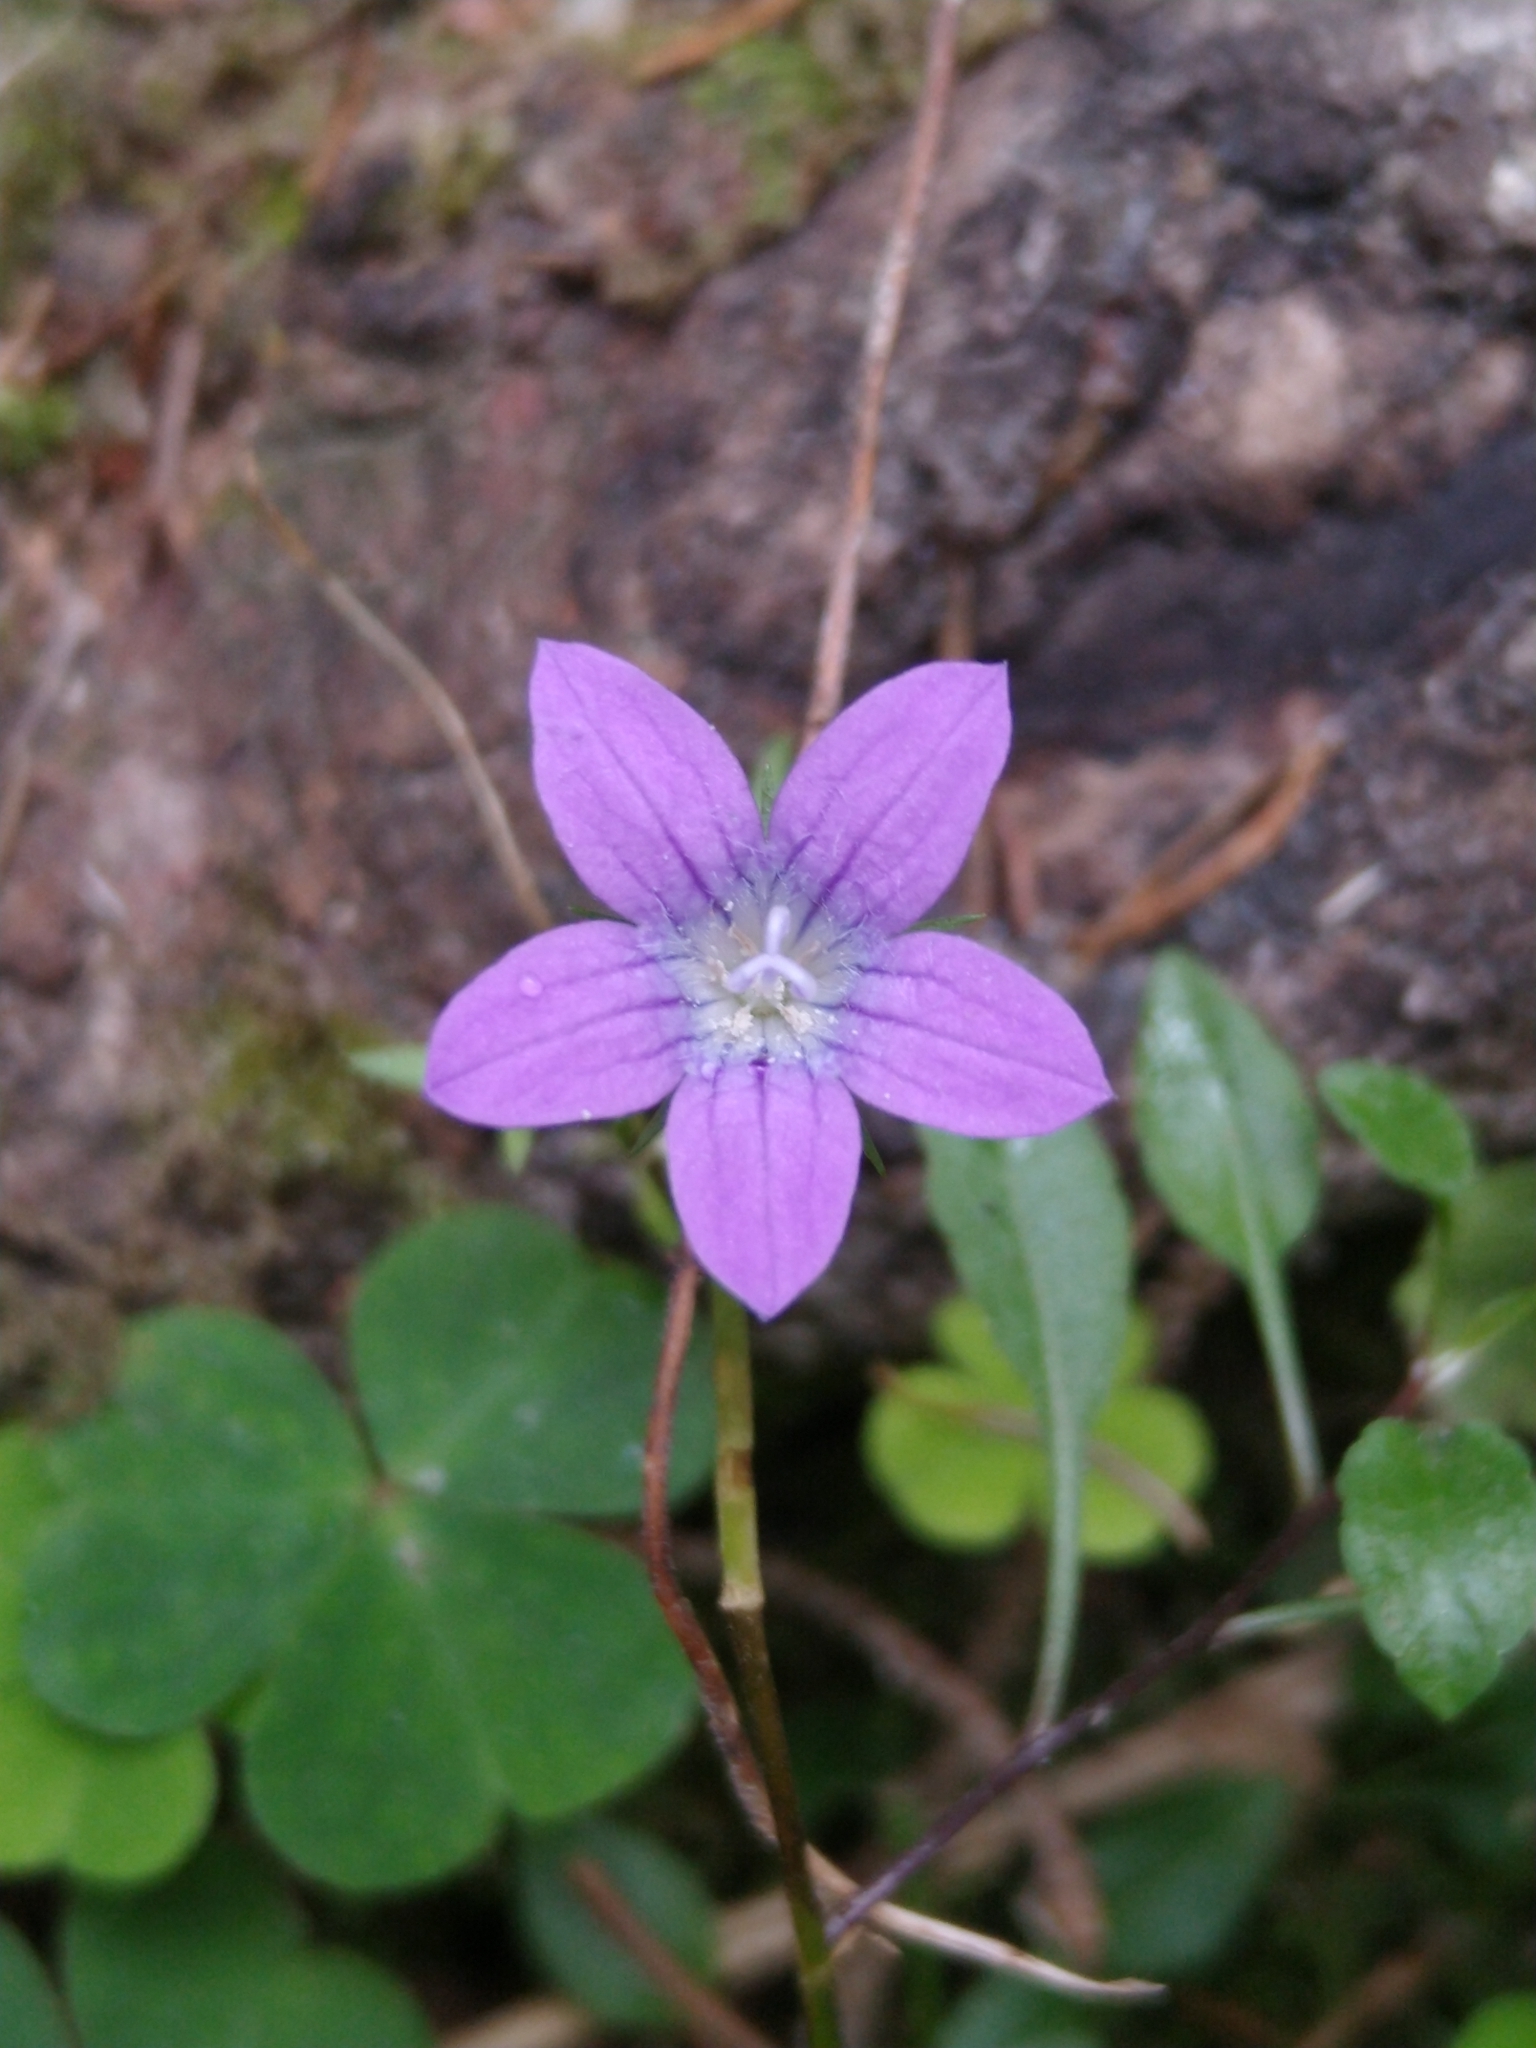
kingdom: Plantae
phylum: Tracheophyta
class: Magnoliopsida
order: Asterales
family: Campanulaceae
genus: Campanula
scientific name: Campanula patula
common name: Spreading bellflower
